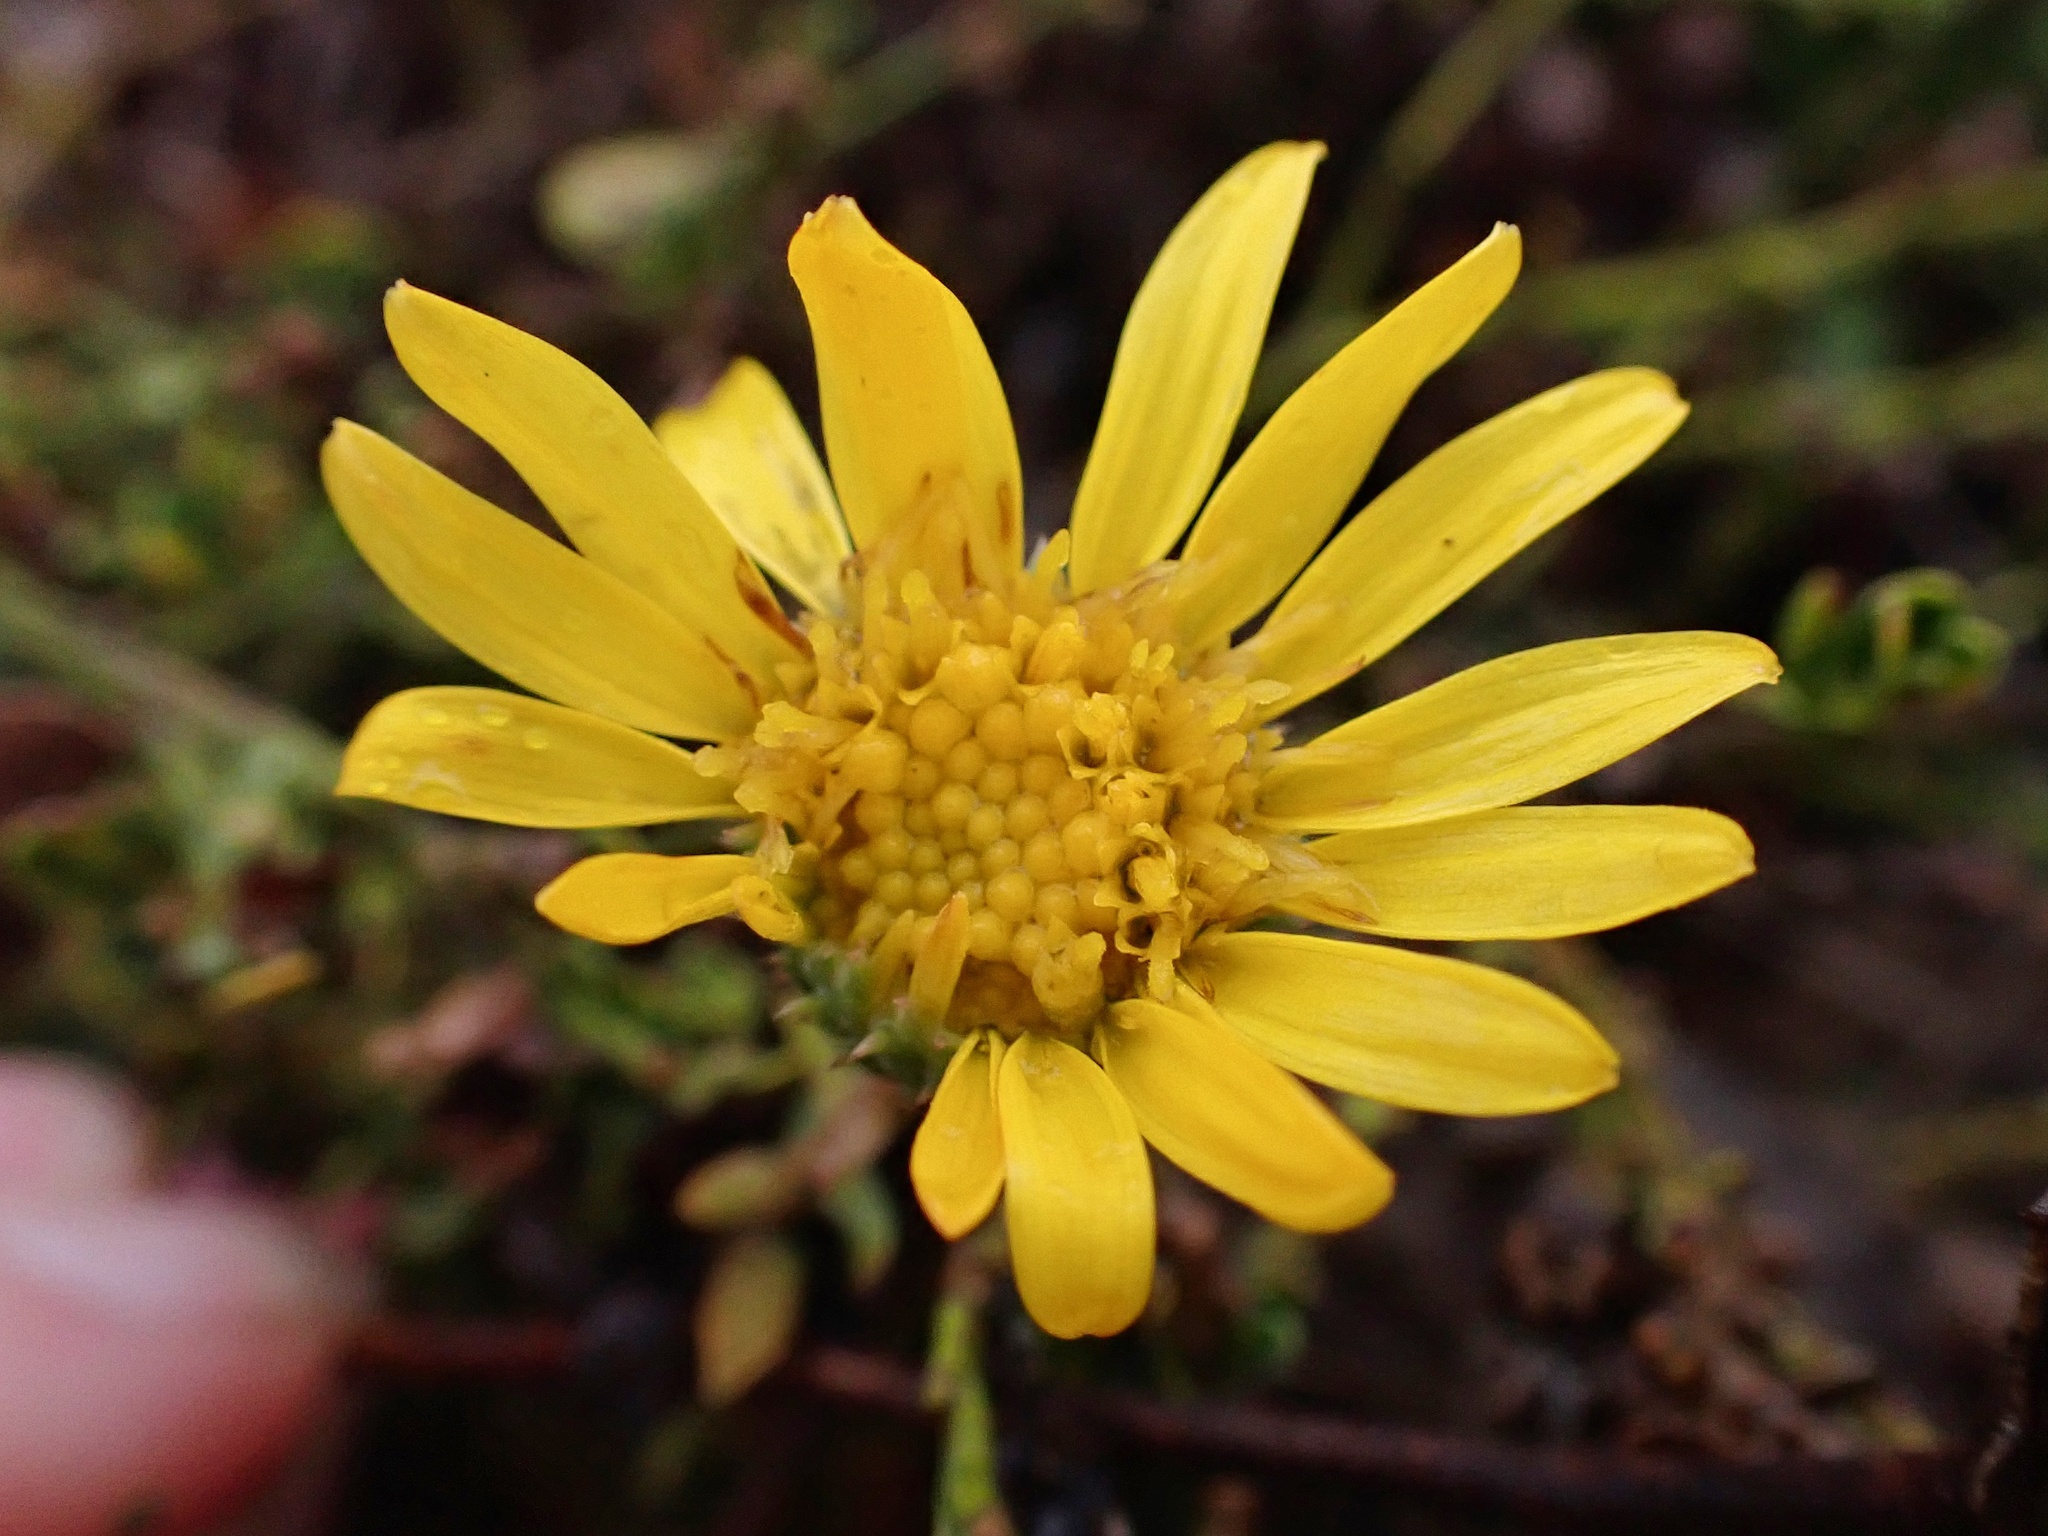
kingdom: Plantae
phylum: Tracheophyta
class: Magnoliopsida
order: Asterales
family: Asteraceae
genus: Grindelia
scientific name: Grindelia hirsutula
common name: Hairy gumweed
